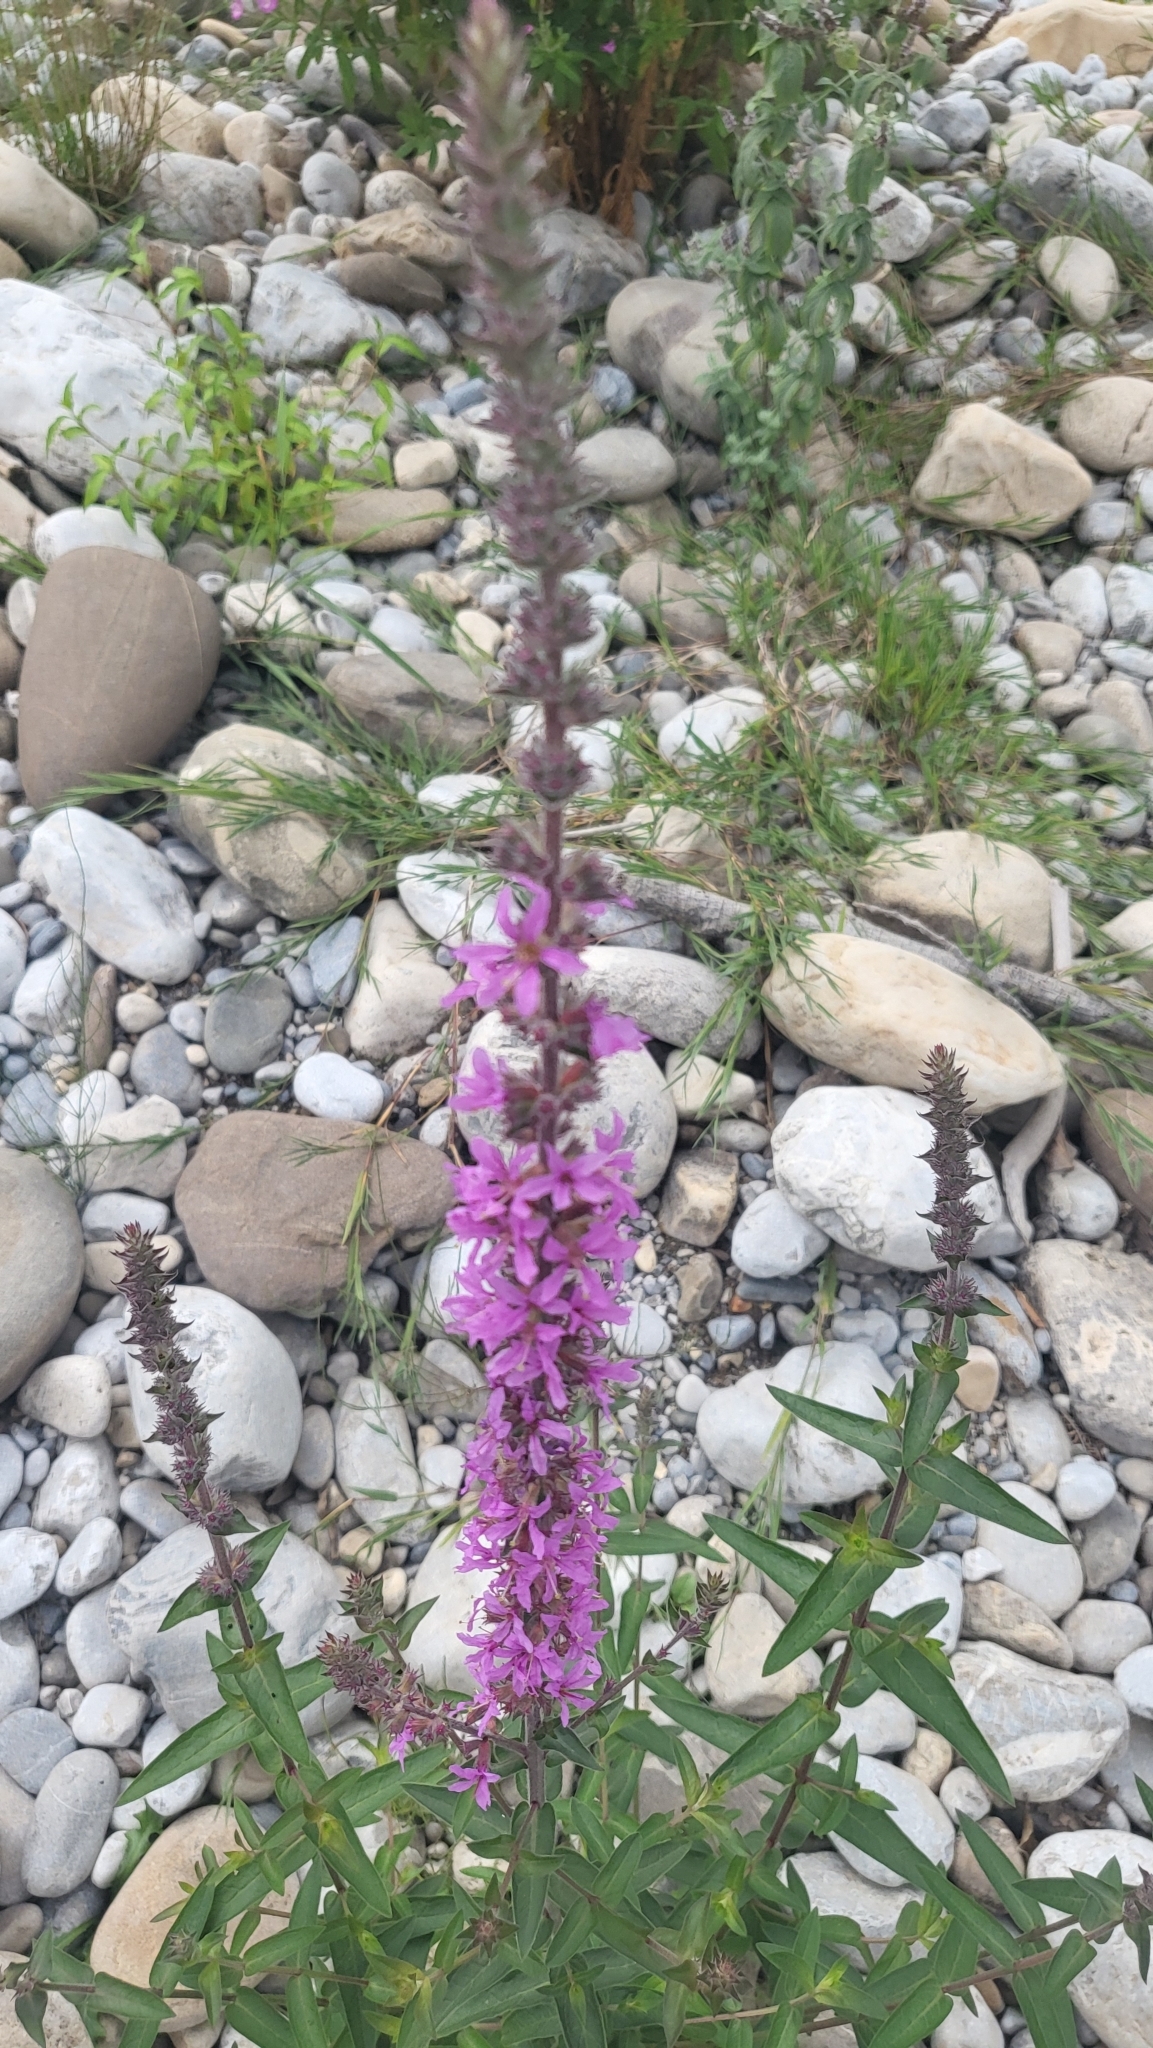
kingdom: Plantae
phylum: Tracheophyta
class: Magnoliopsida
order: Myrtales
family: Lythraceae
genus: Lythrum
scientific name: Lythrum salicaria
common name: Purple loosestrife
